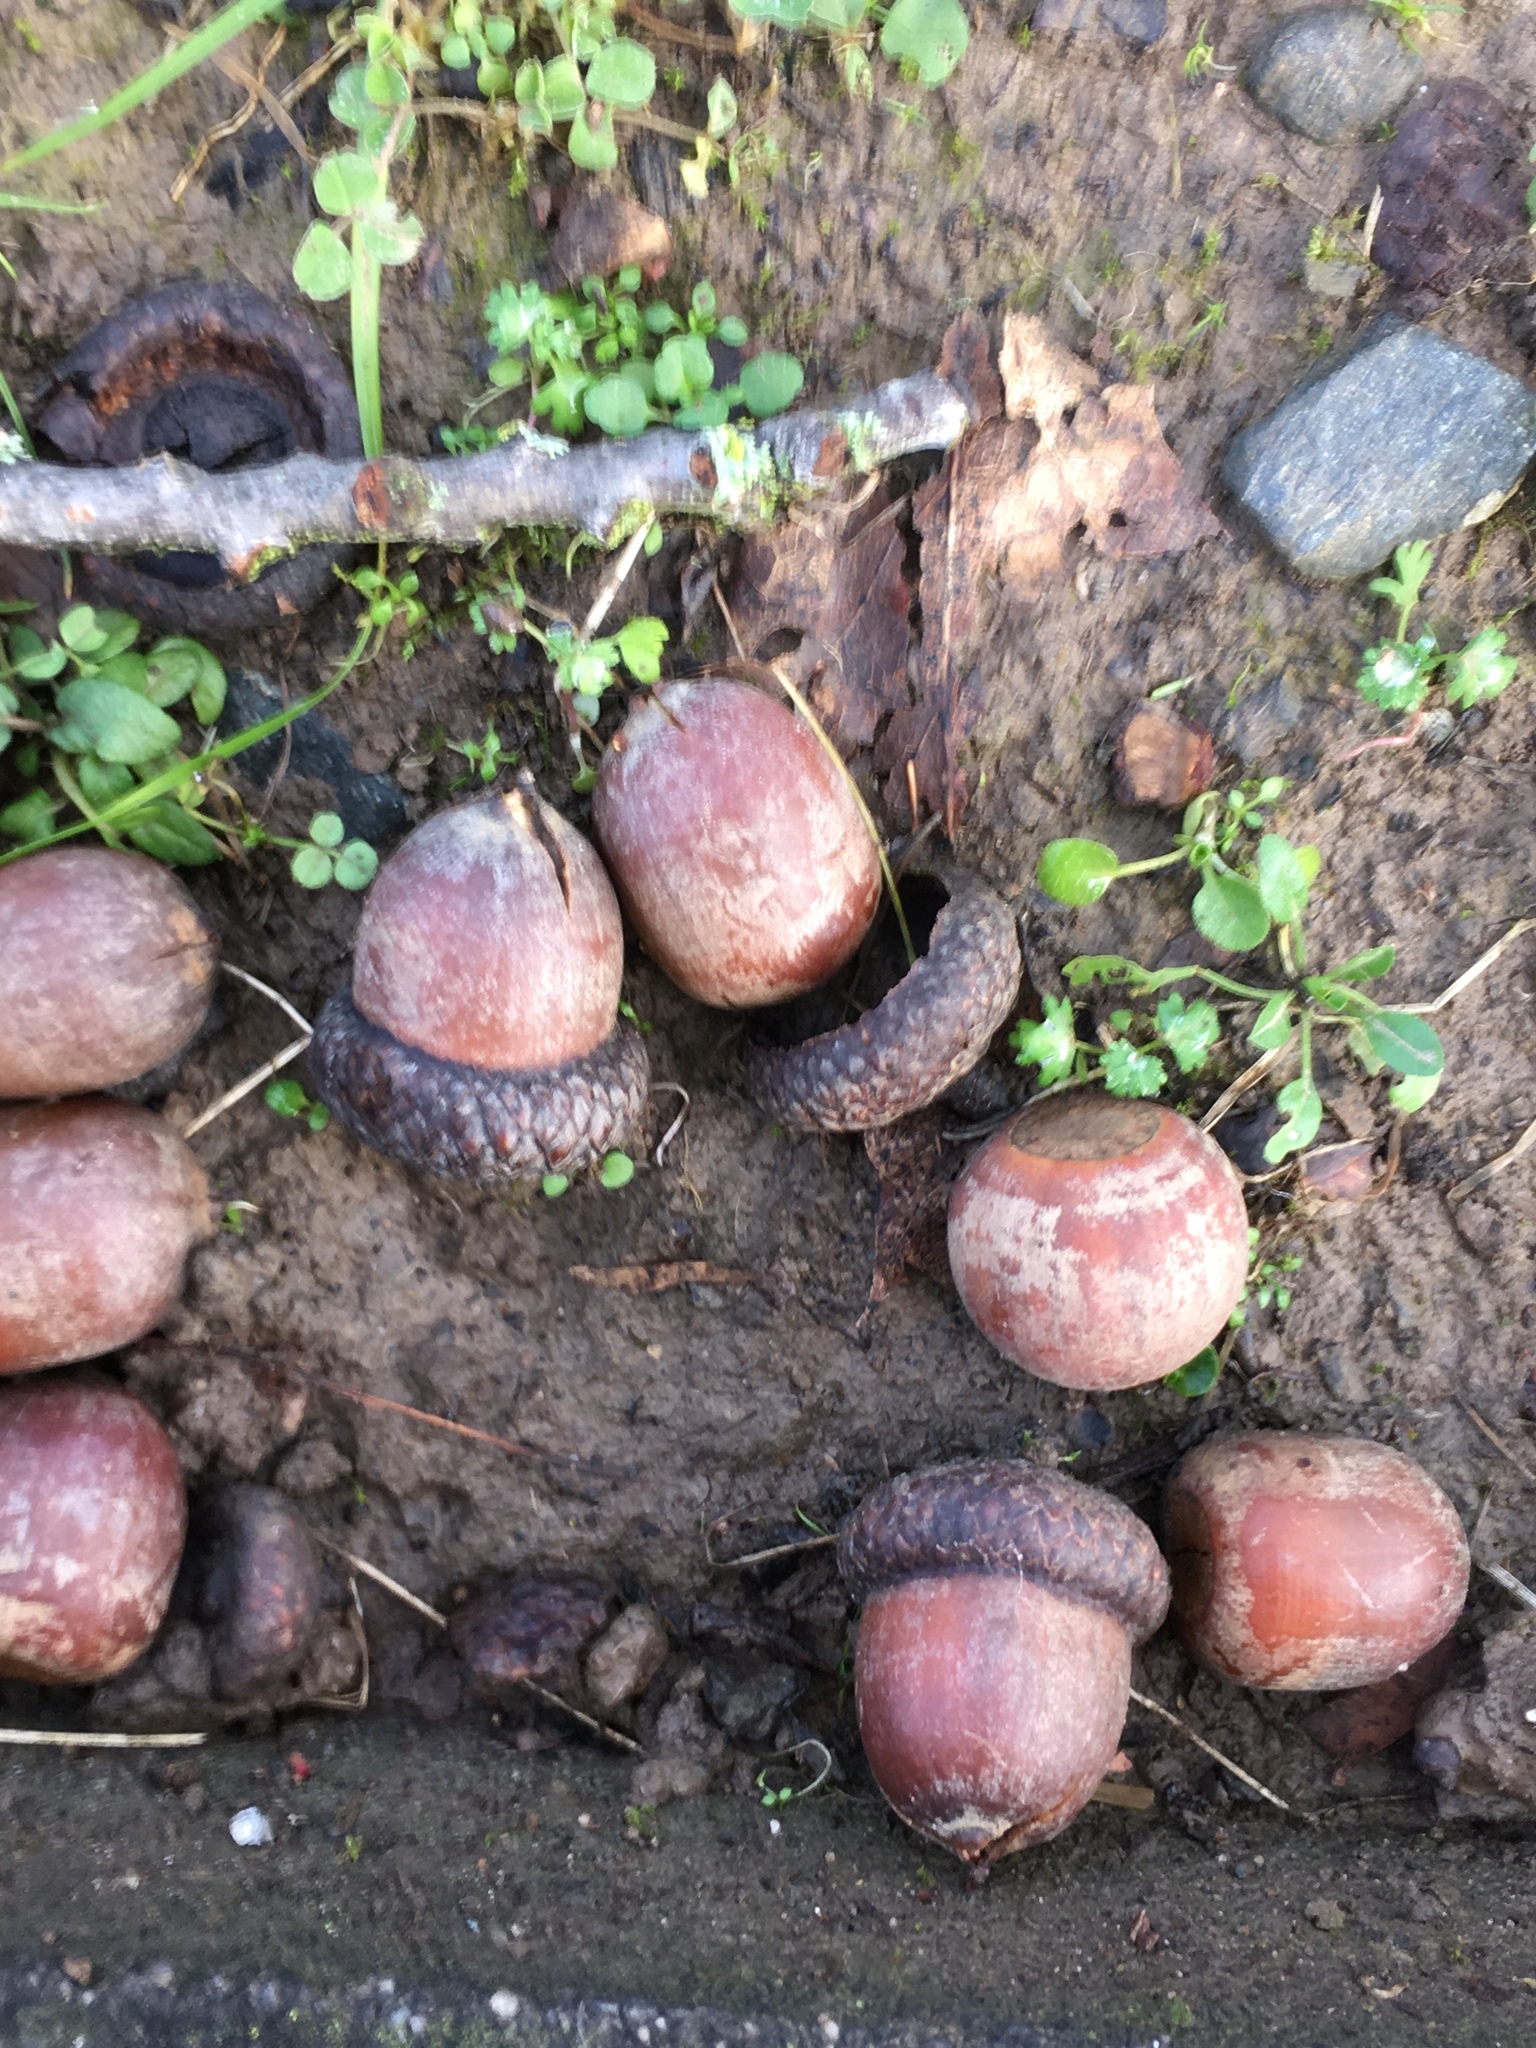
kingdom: Plantae
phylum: Tracheophyta
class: Magnoliopsida
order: Fagales
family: Fagaceae
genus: Quercus
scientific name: Quercus rubra
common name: Red oak
